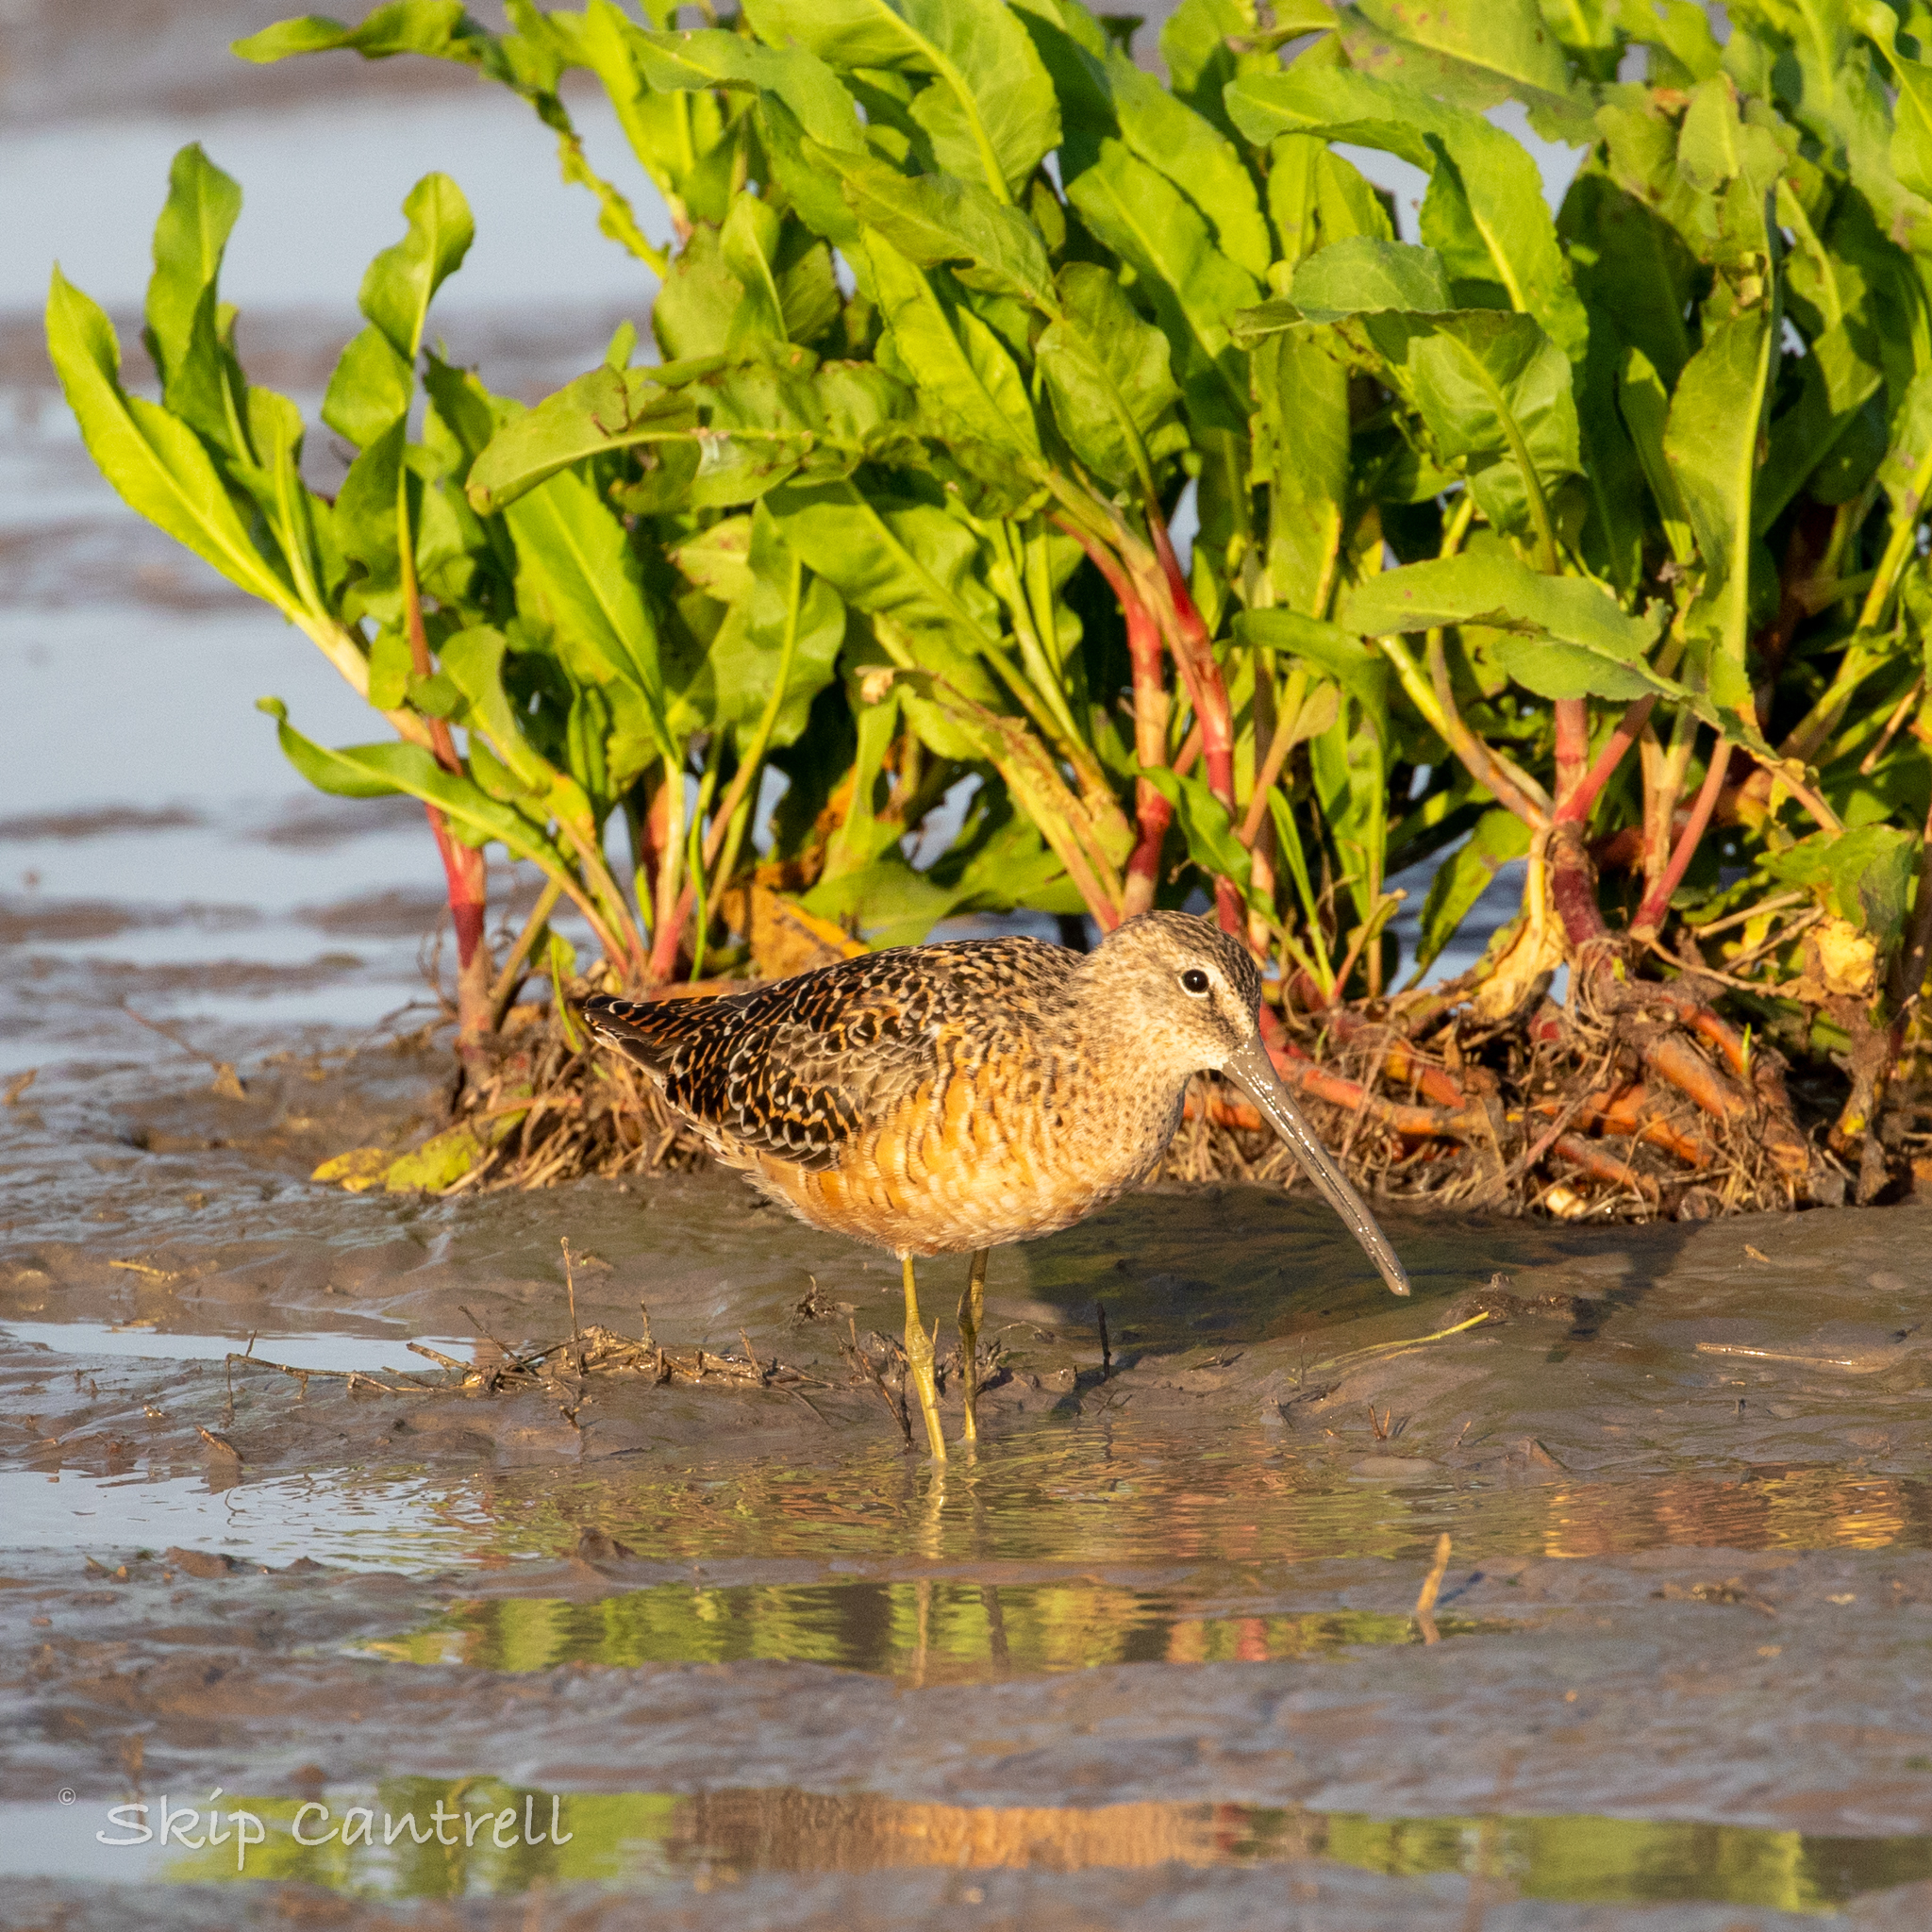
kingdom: Animalia
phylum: Chordata
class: Aves
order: Charadriiformes
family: Scolopacidae
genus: Limnodromus
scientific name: Limnodromus scolopaceus
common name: Long-billed dowitcher
